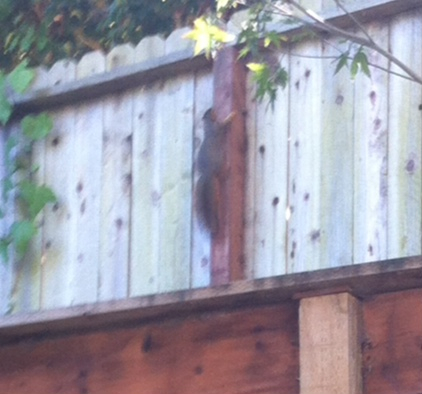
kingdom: Animalia
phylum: Chordata
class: Mammalia
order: Rodentia
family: Sciuridae
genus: Sciurus
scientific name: Sciurus niger
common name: Fox squirrel
